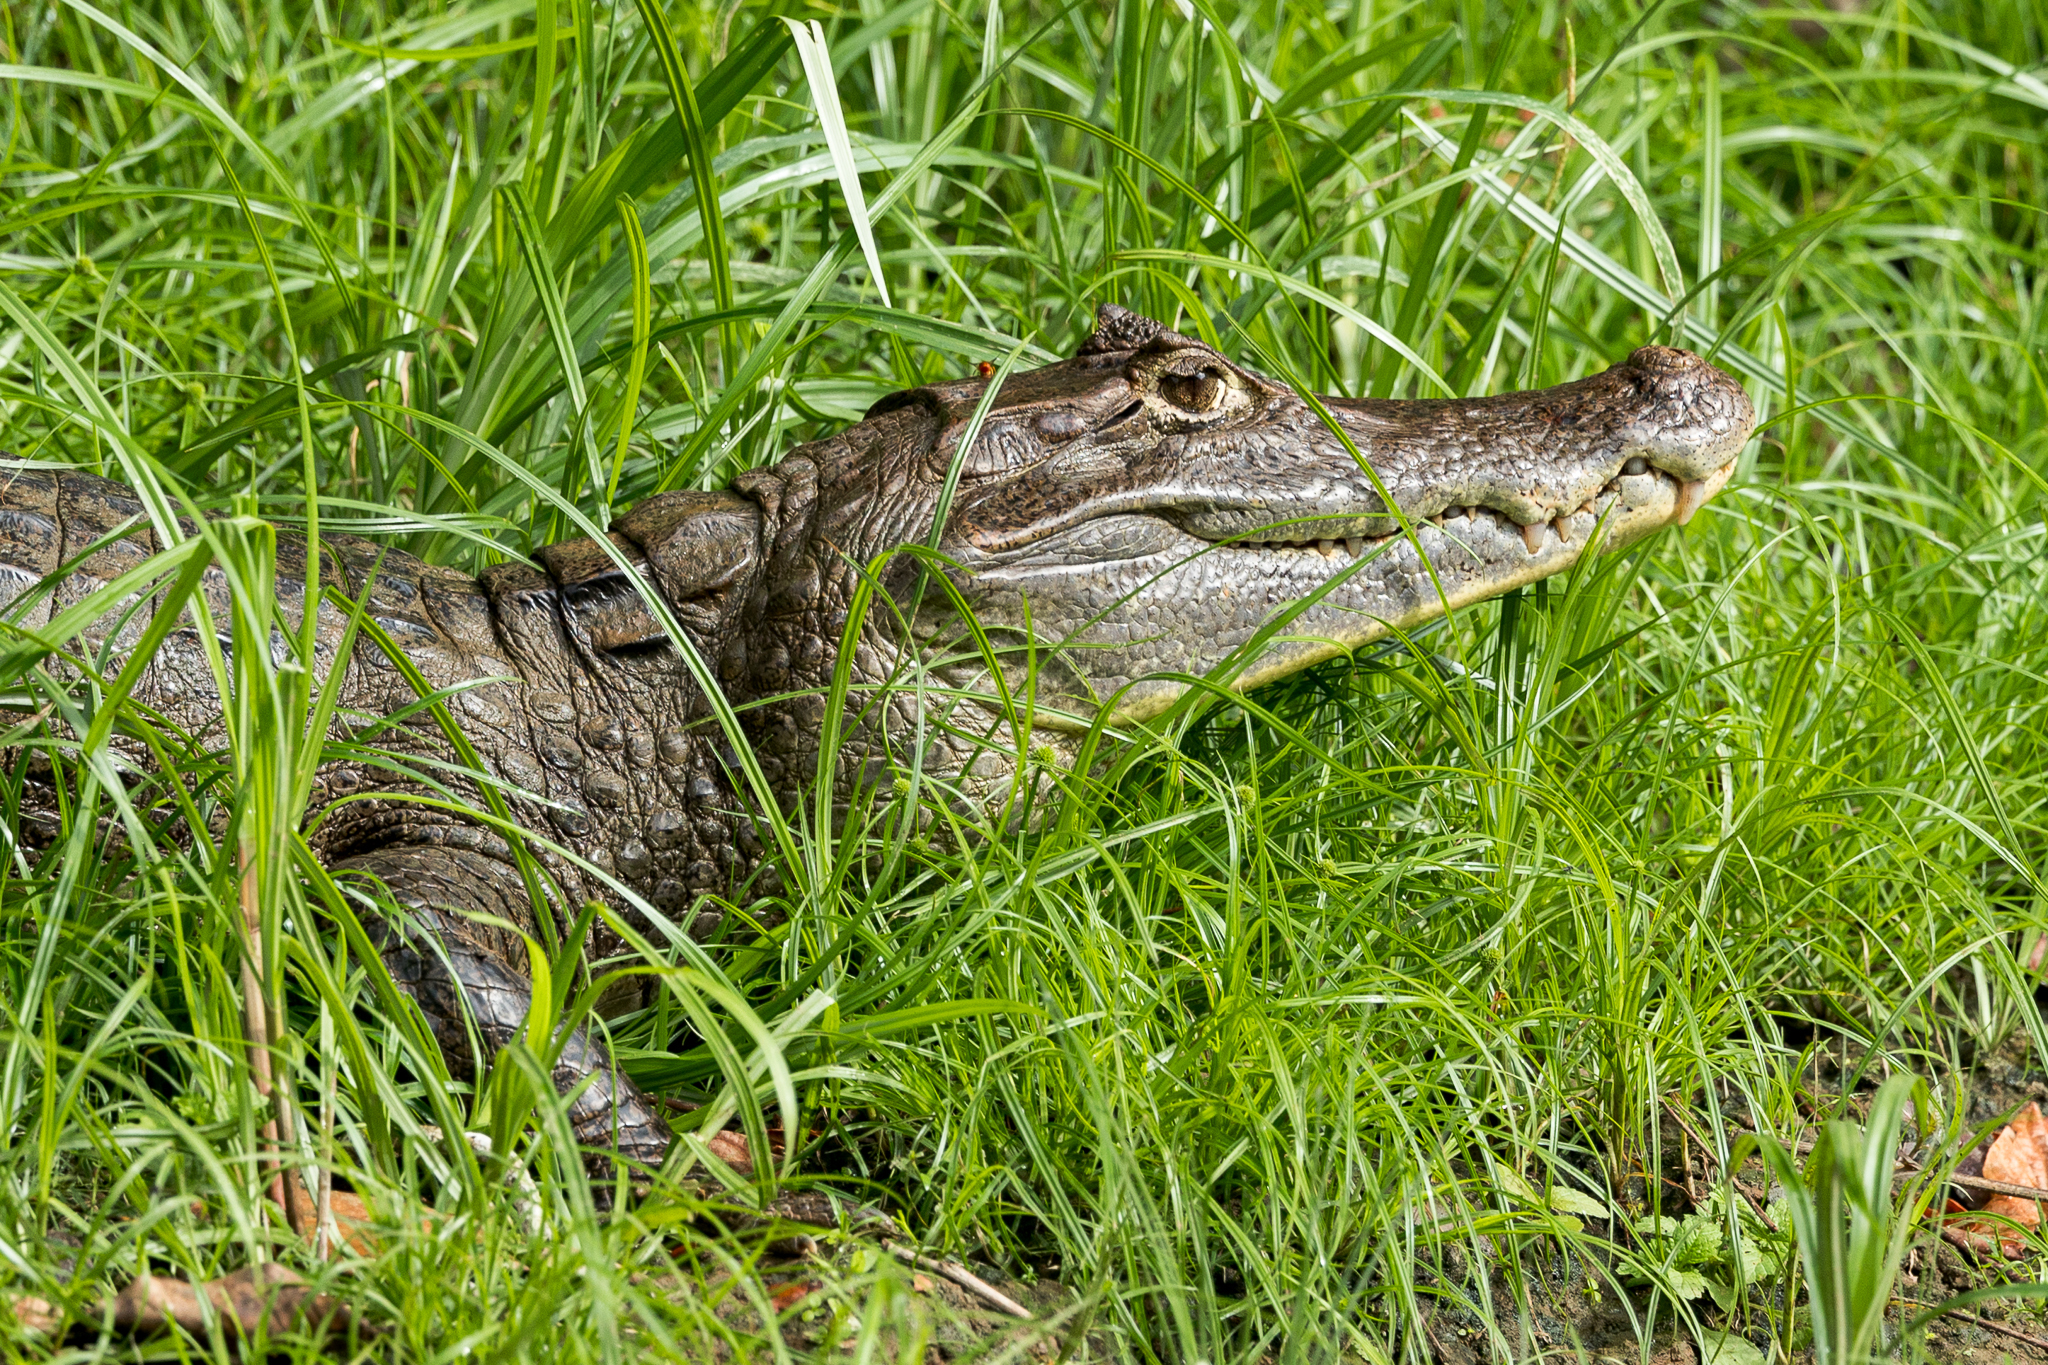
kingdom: Animalia
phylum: Chordata
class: Crocodylia
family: Alligatoridae
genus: Caiman
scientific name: Caiman crocodilus
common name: Common caiman
